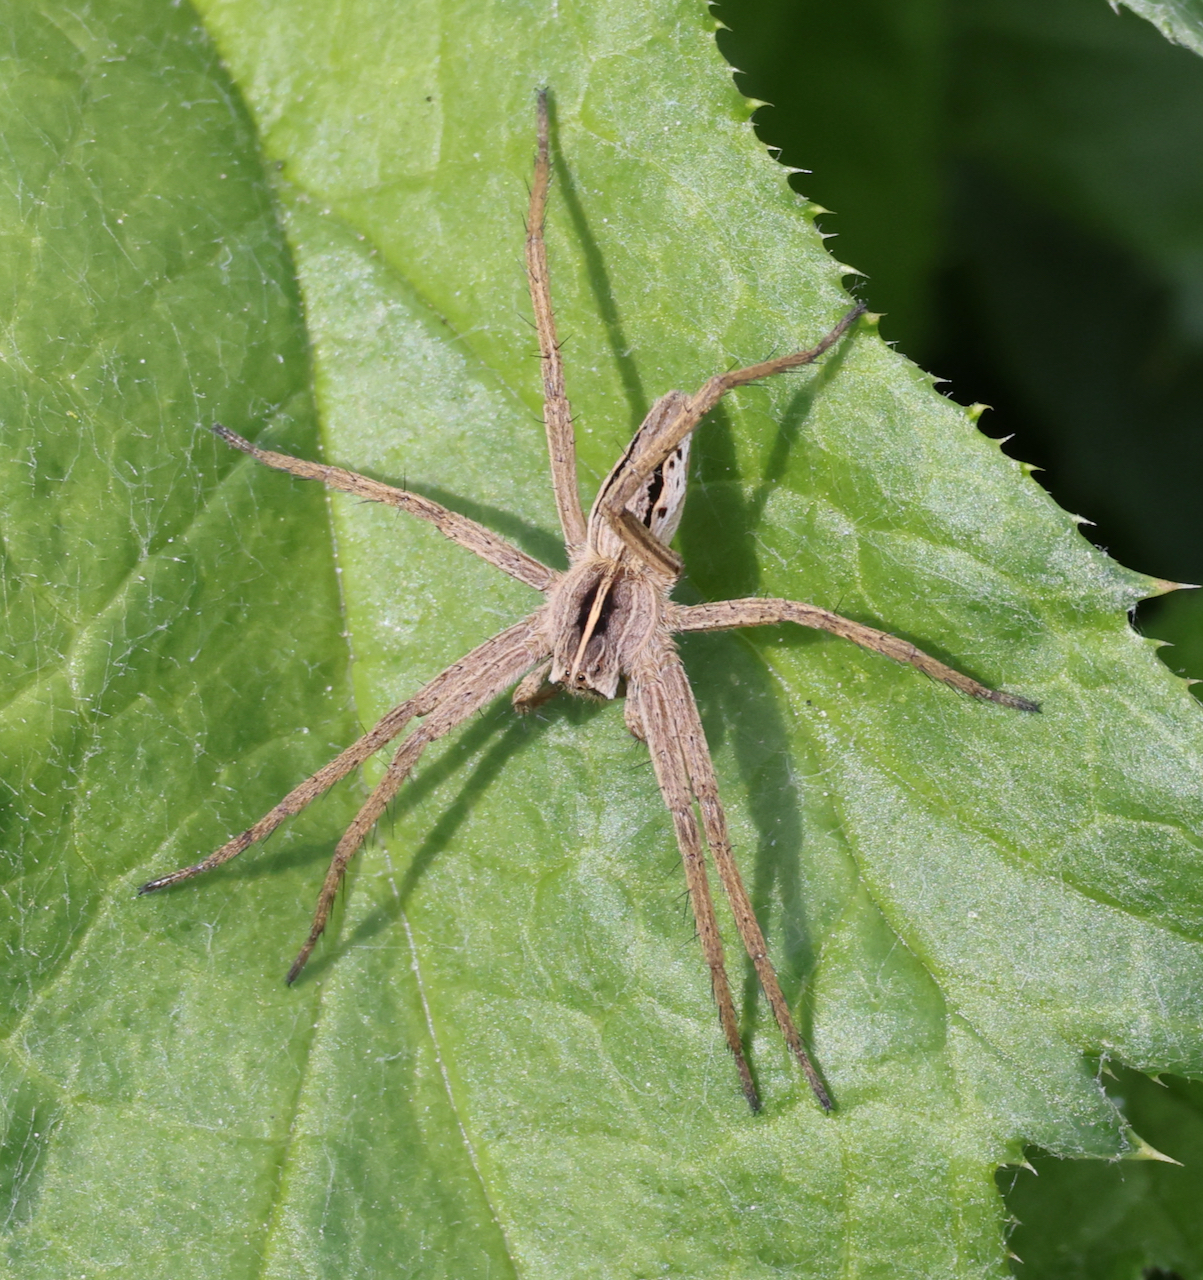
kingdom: Animalia
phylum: Arthropoda
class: Arachnida
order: Araneae
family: Pisauridae
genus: Pisaura
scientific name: Pisaura mirabilis
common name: Tent spider
